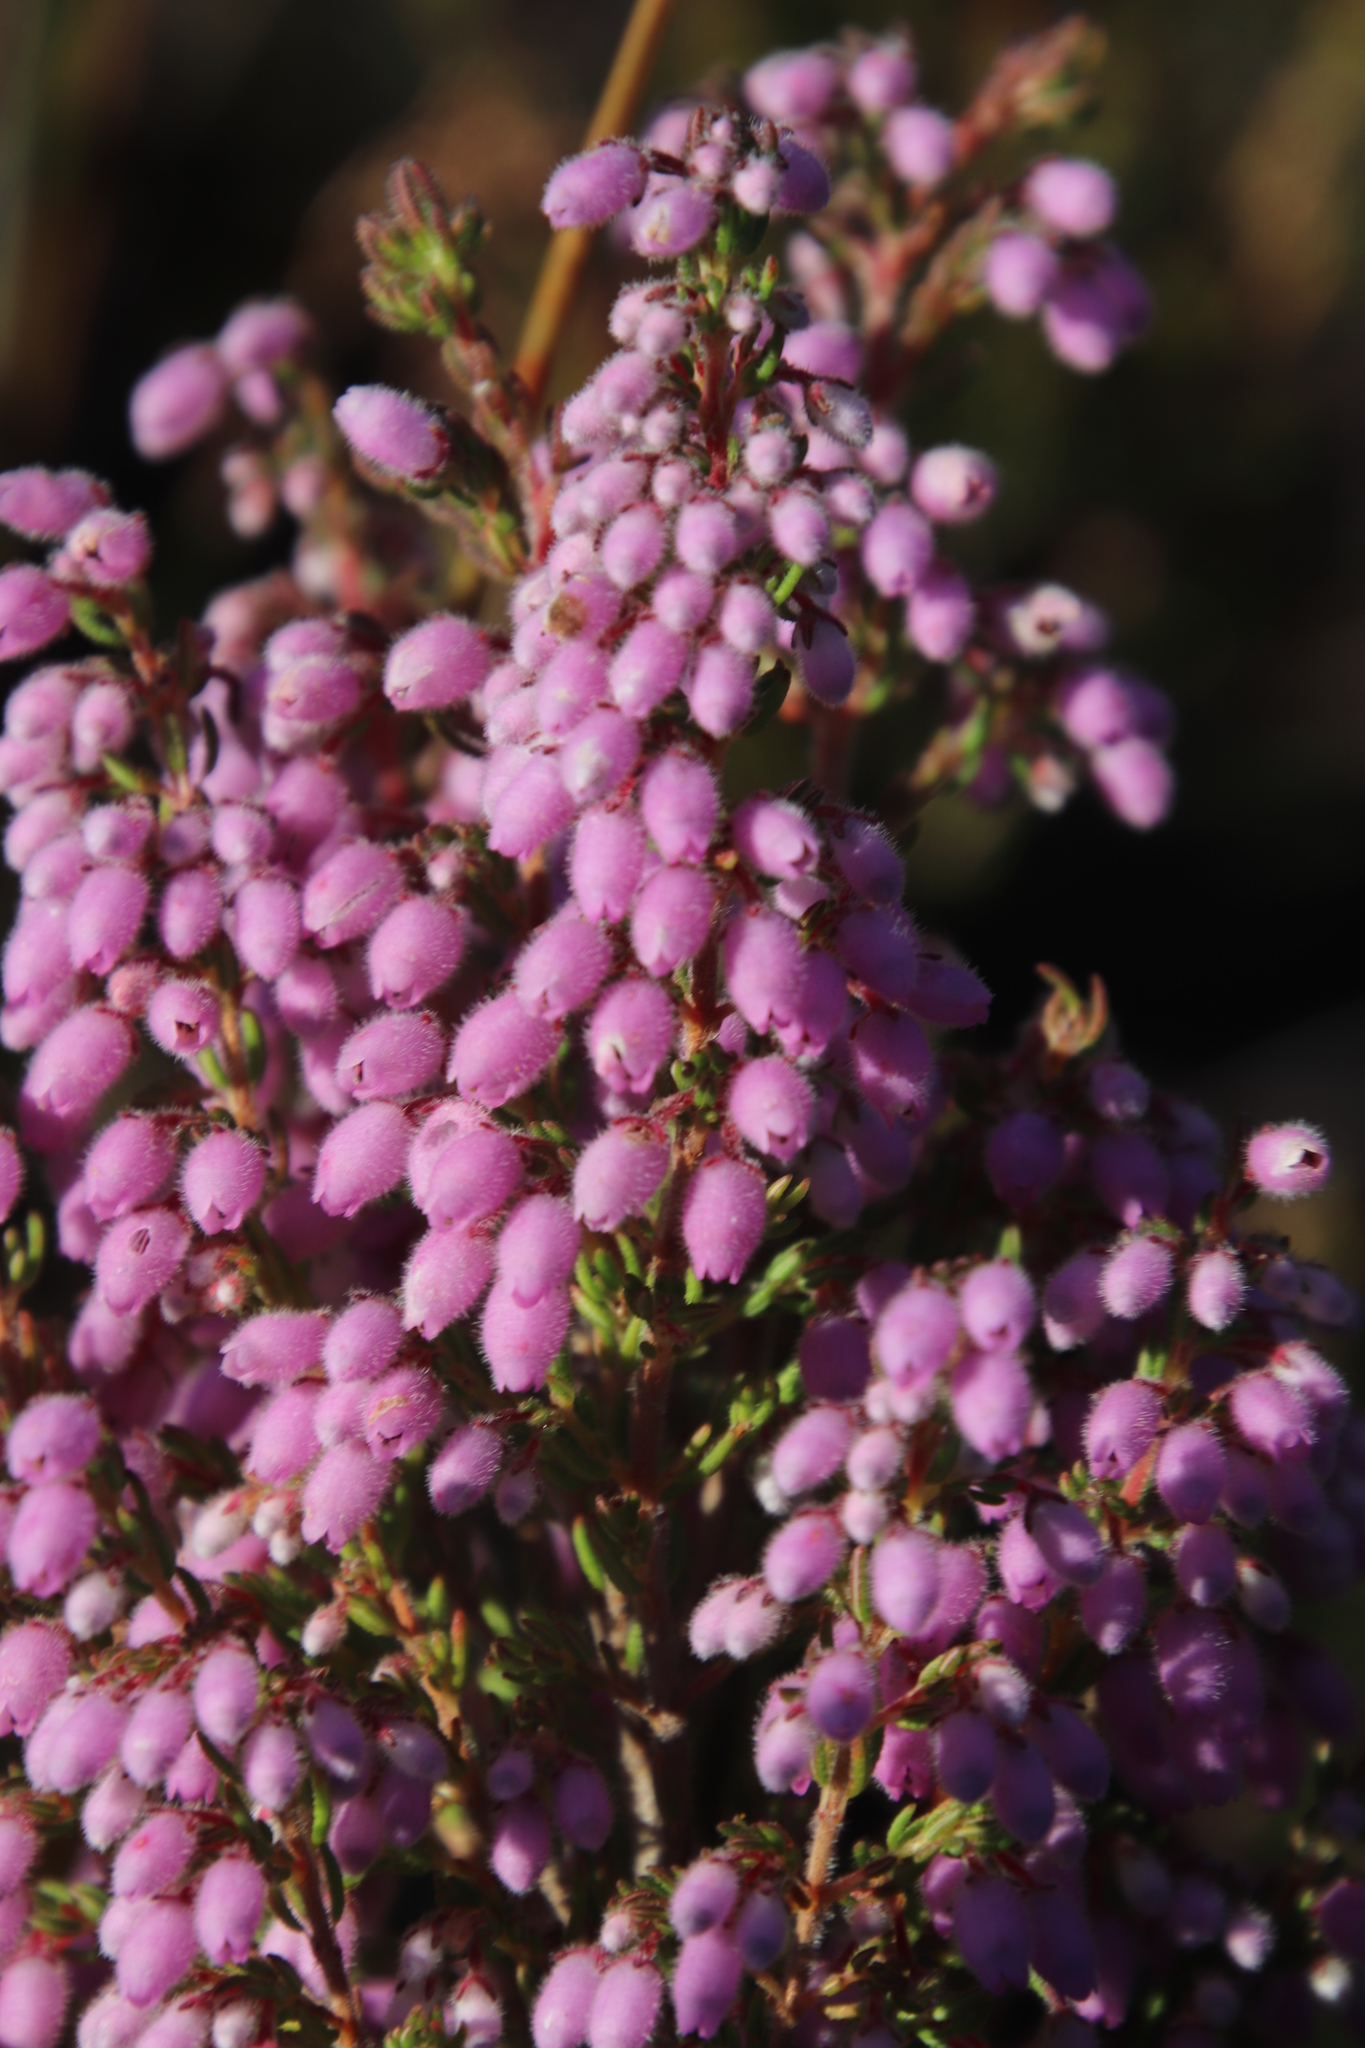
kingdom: Plantae
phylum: Tracheophyta
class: Magnoliopsida
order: Ericales
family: Ericaceae
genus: Erica
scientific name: Erica hirtiflora
